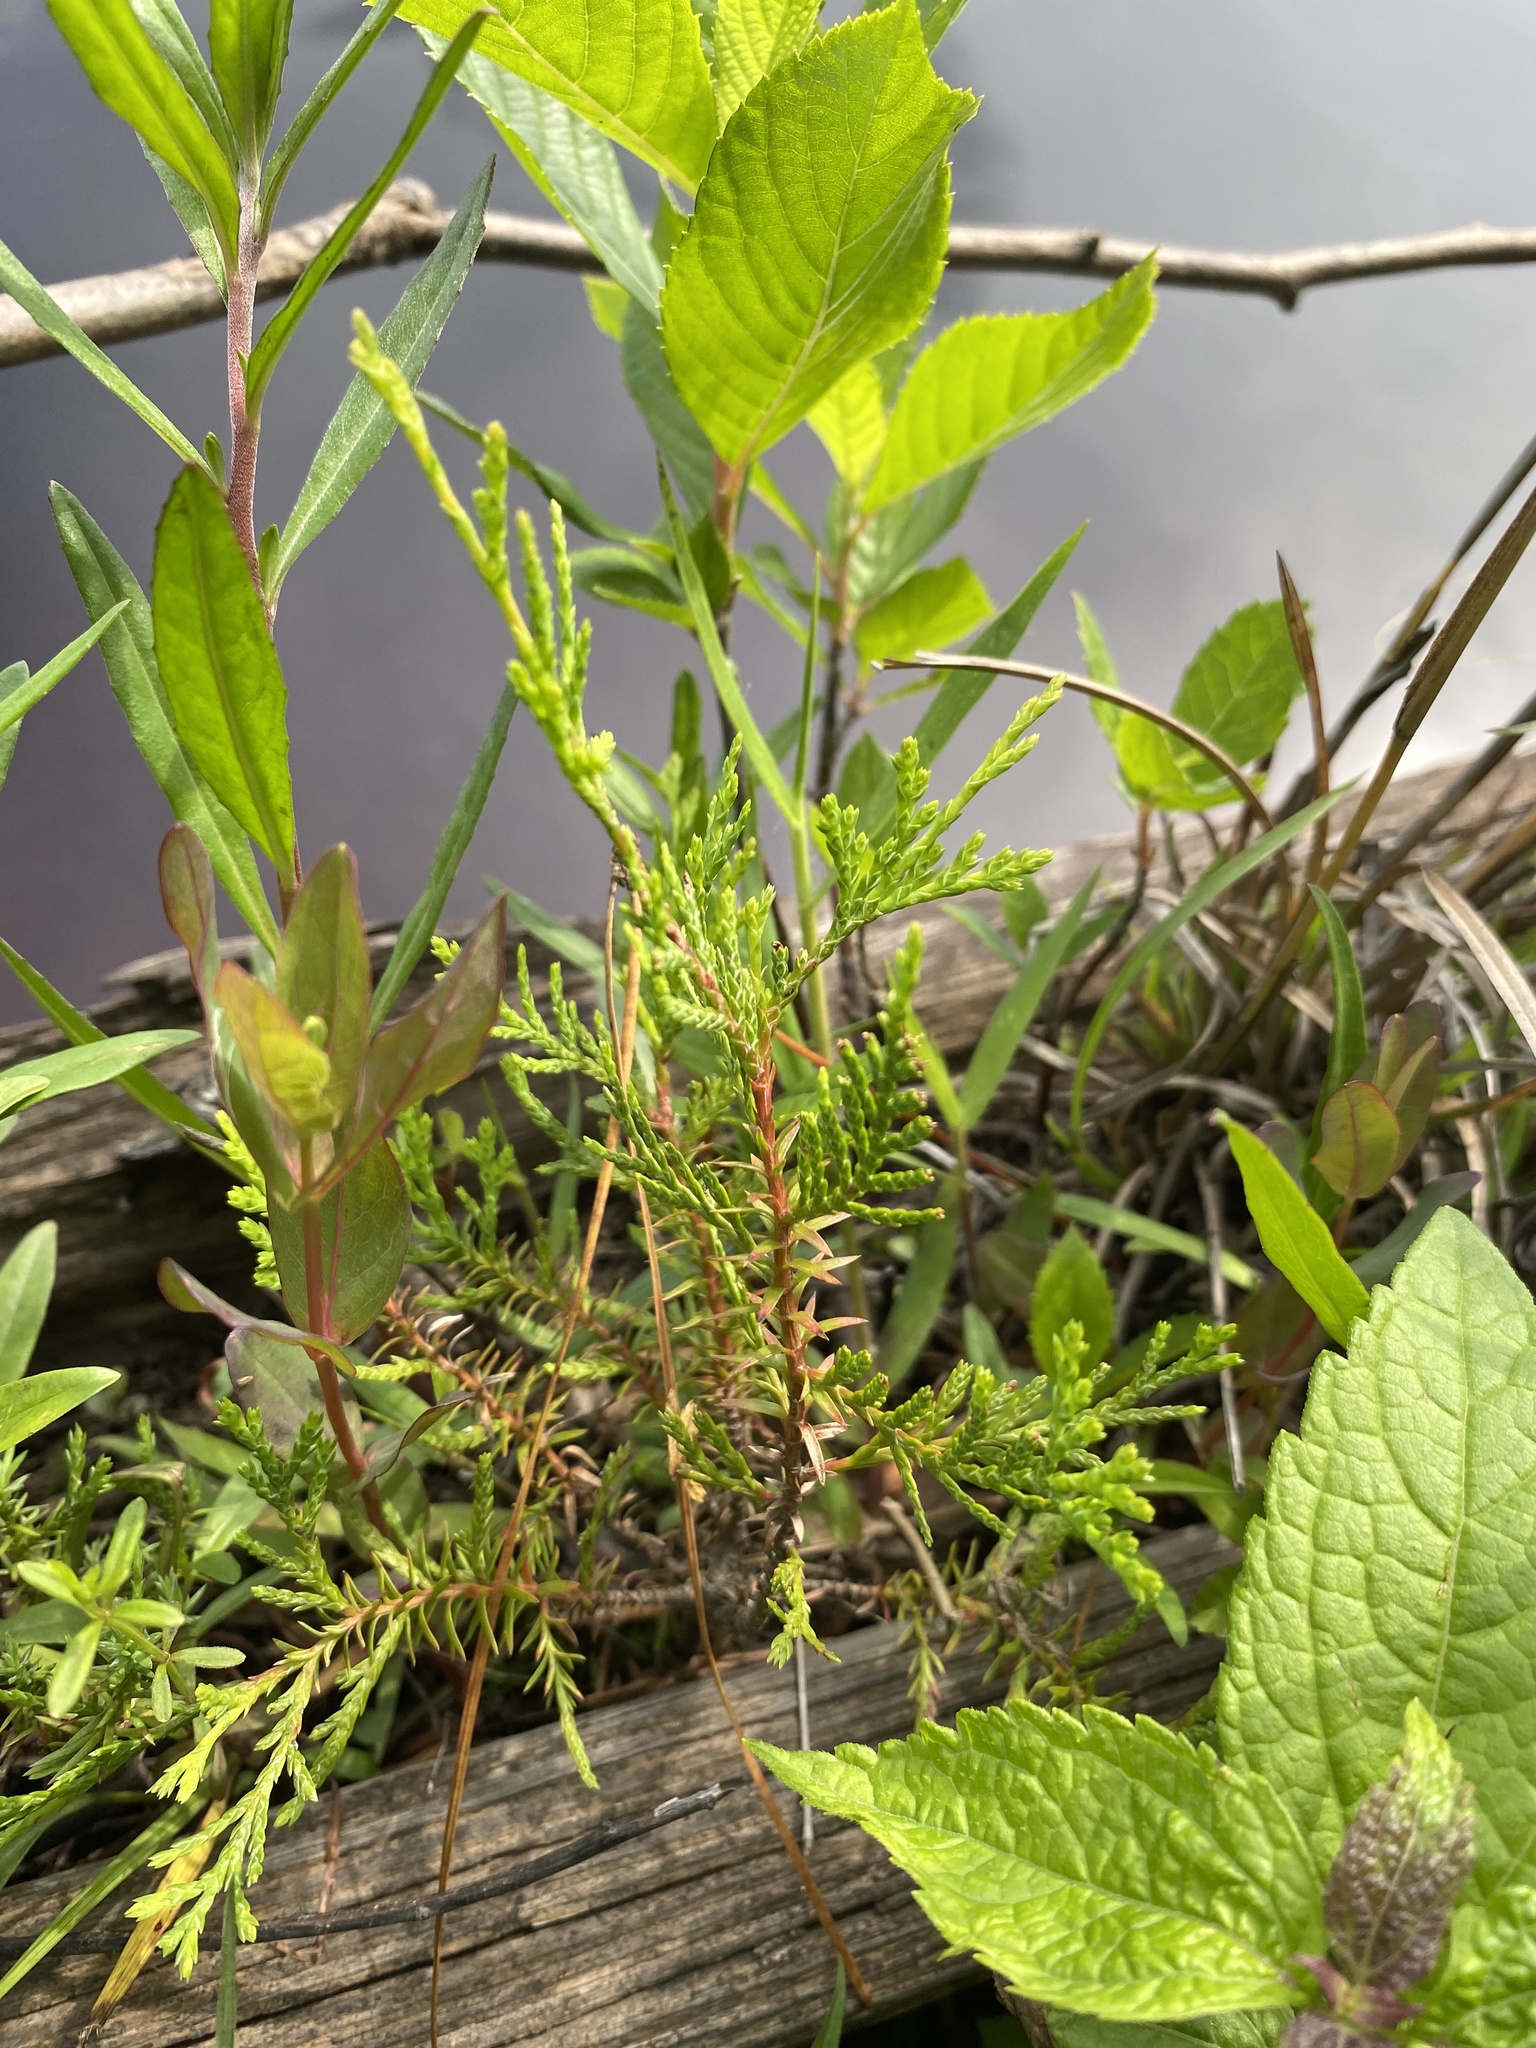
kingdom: Plantae
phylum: Tracheophyta
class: Pinopsida
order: Pinales
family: Cupressaceae
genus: Chamaecyparis
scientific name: Chamaecyparis thyoides
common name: Atlantic white cedar
